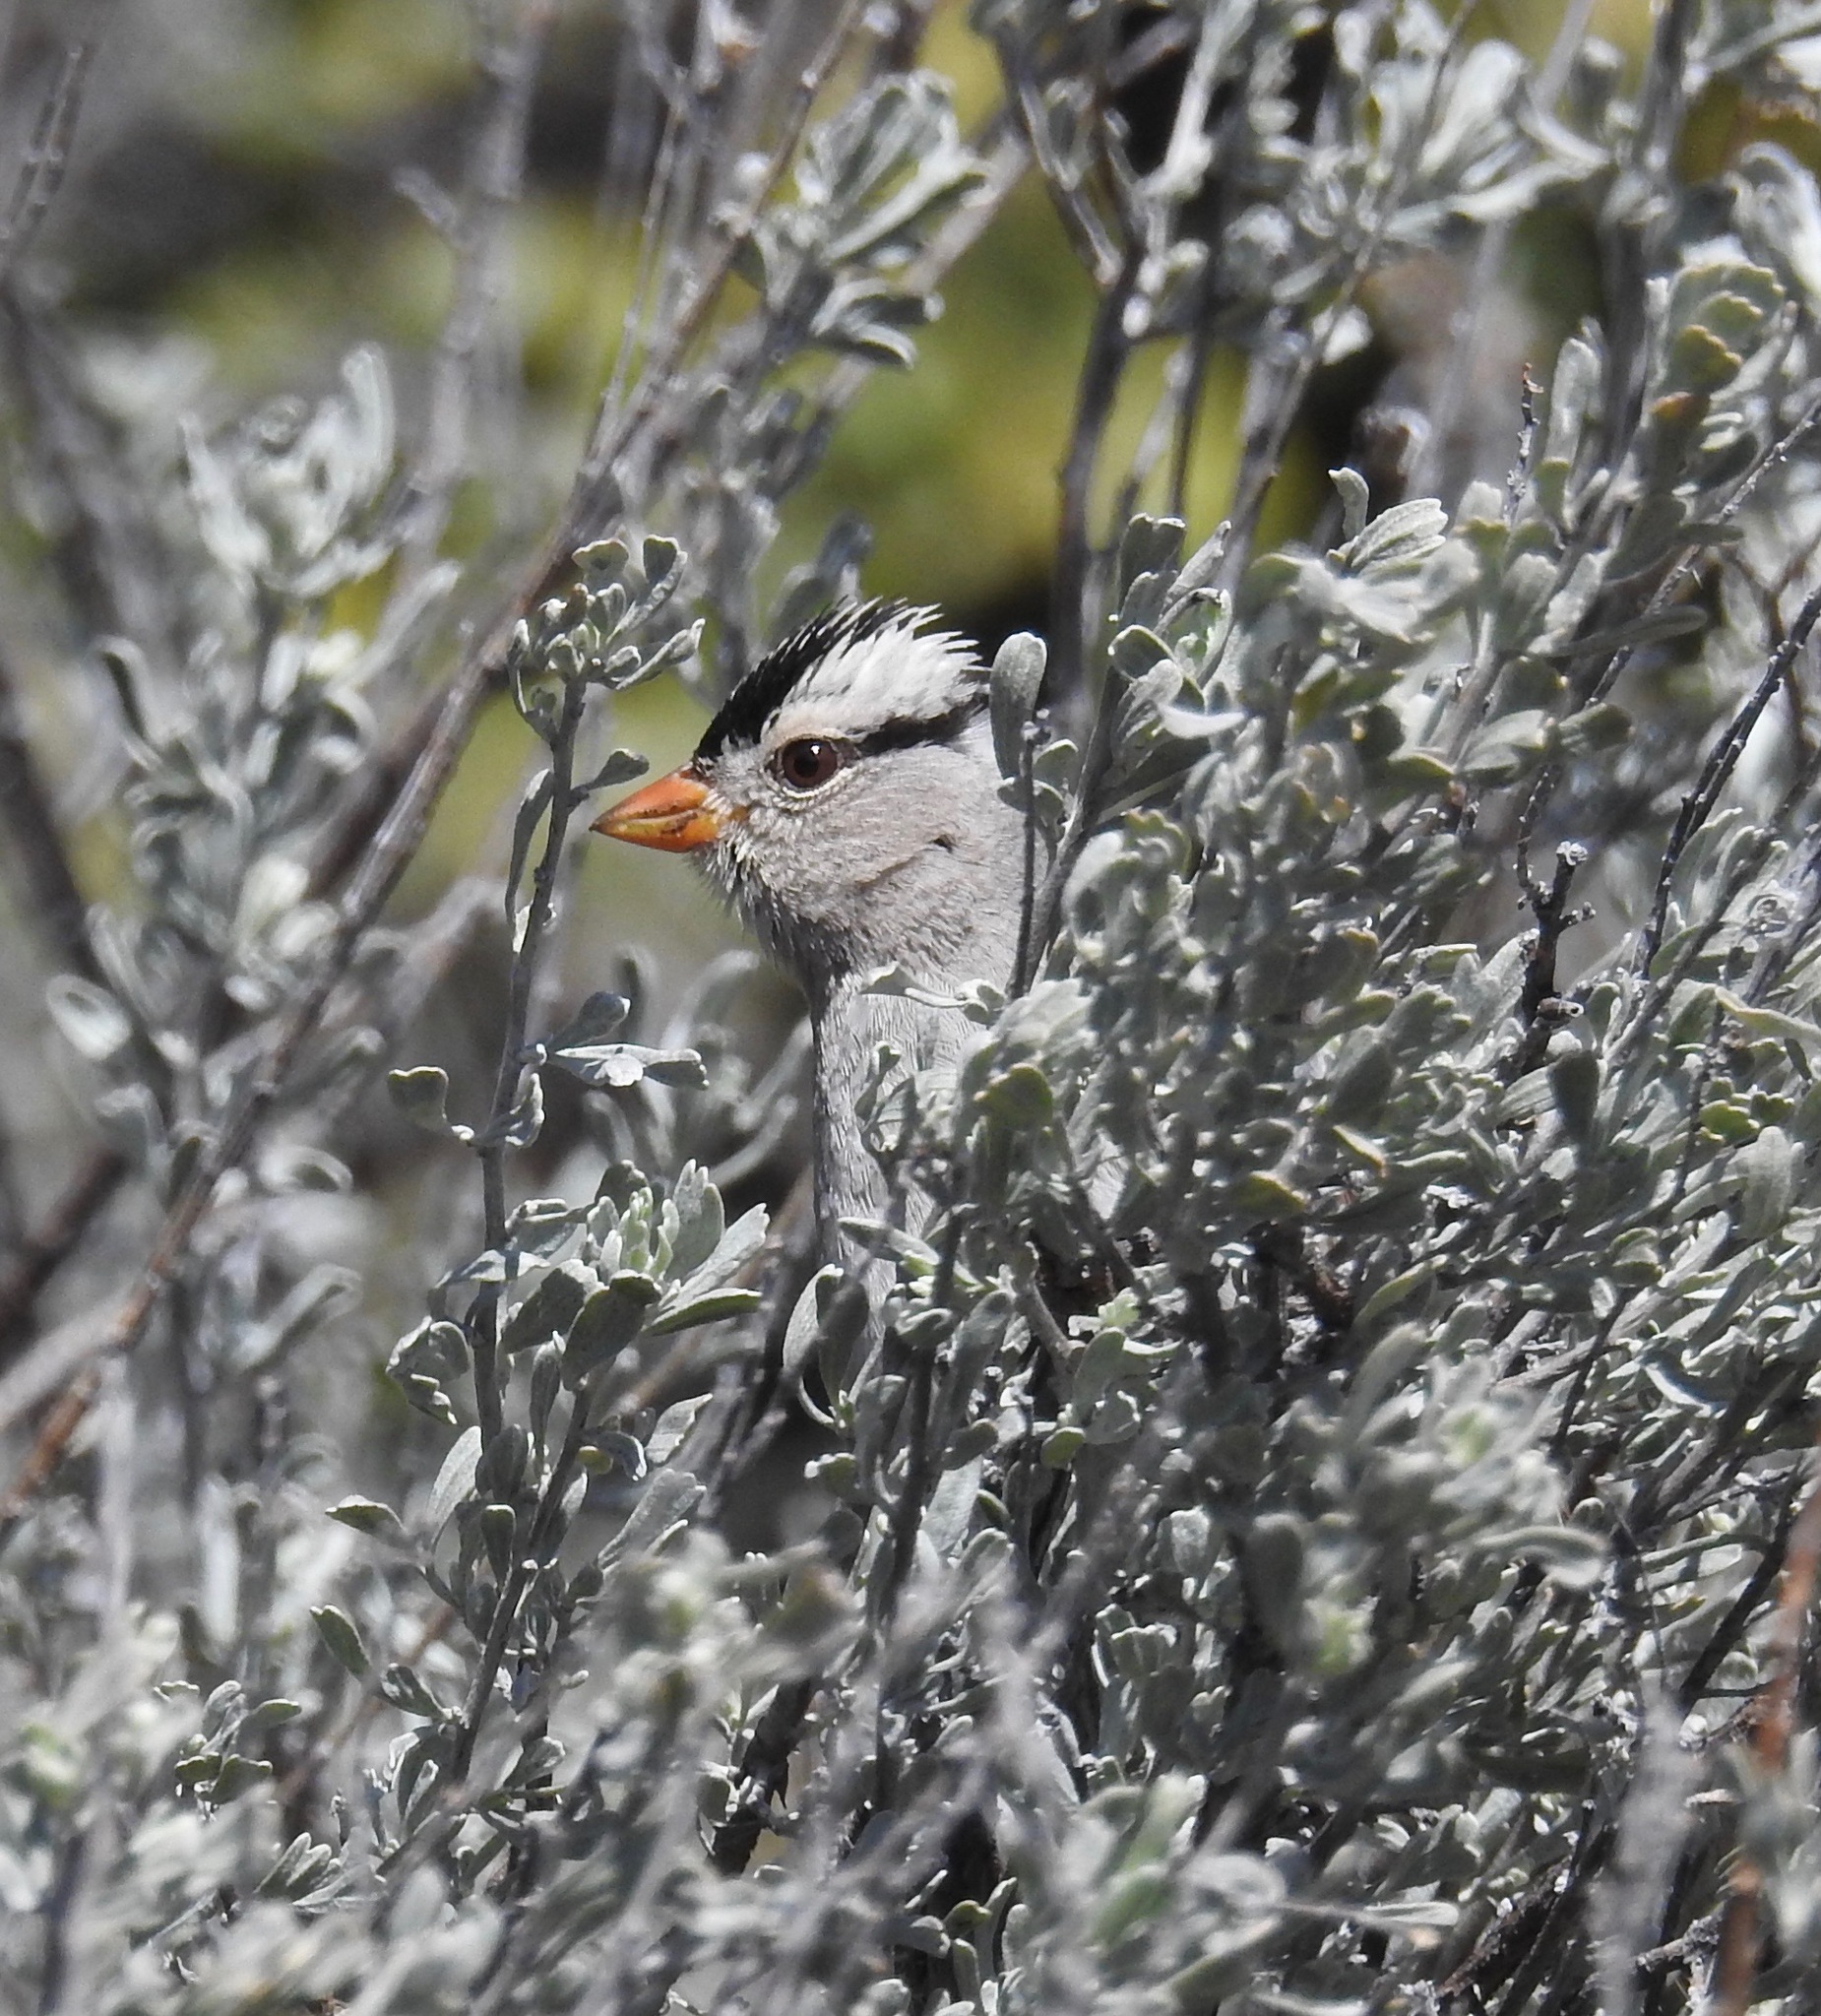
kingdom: Animalia
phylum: Chordata
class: Aves
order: Passeriformes
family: Passerellidae
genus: Zonotrichia
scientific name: Zonotrichia leucophrys
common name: White-crowned sparrow
